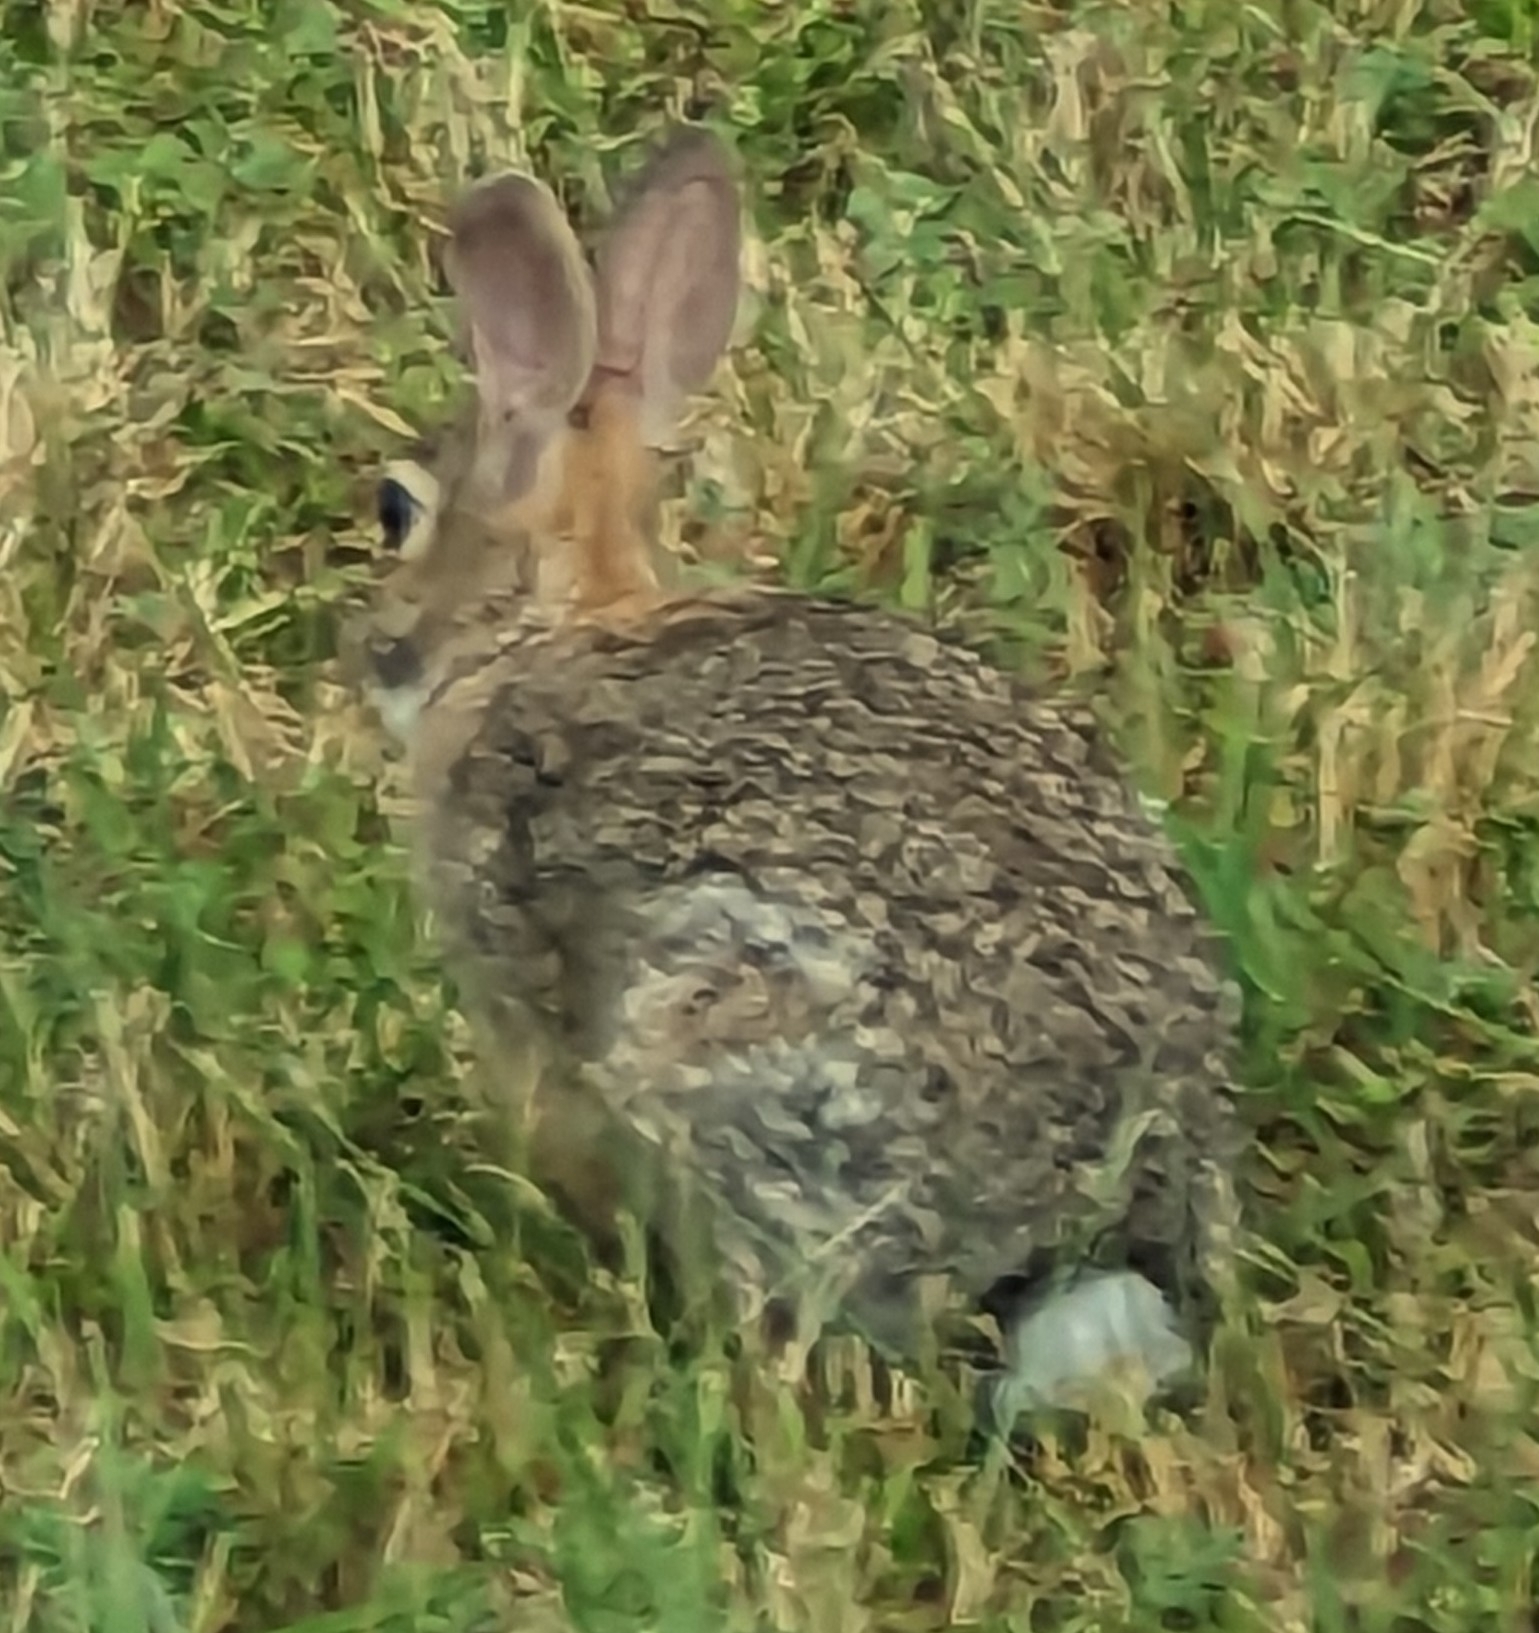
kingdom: Animalia
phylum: Chordata
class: Mammalia
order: Lagomorpha
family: Leporidae
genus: Sylvilagus
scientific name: Sylvilagus floridanus
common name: Eastern cottontail
